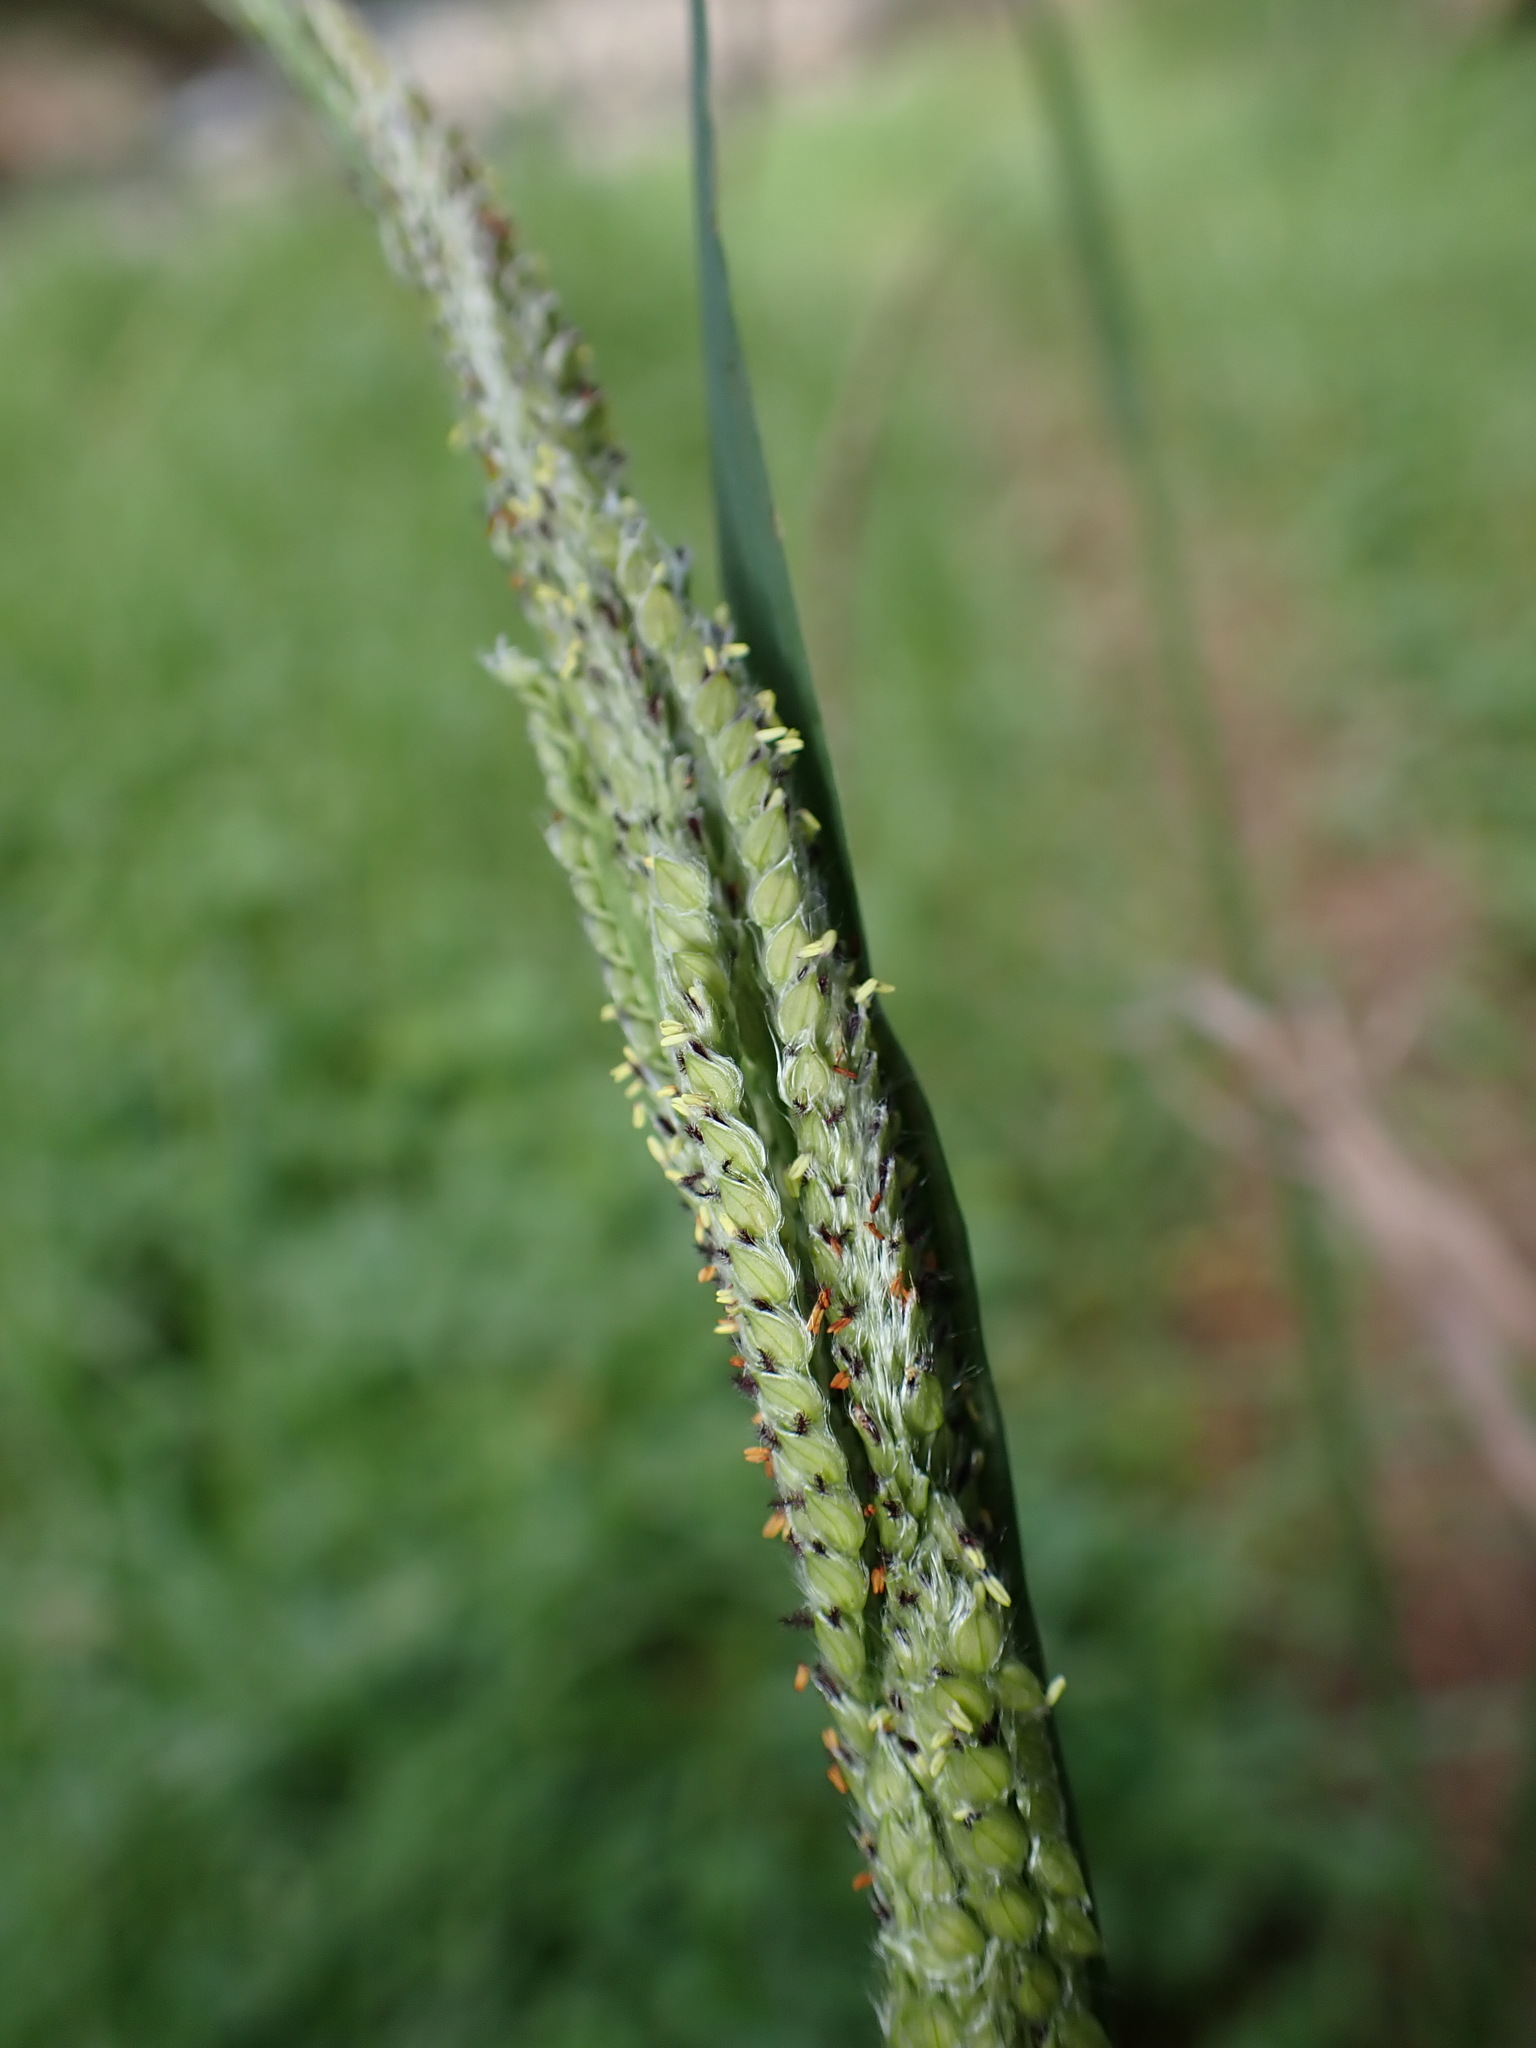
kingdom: Plantae
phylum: Tracheophyta
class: Liliopsida
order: Poales
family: Poaceae
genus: Paspalum
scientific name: Paspalum urvillei
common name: Vasey's grass
